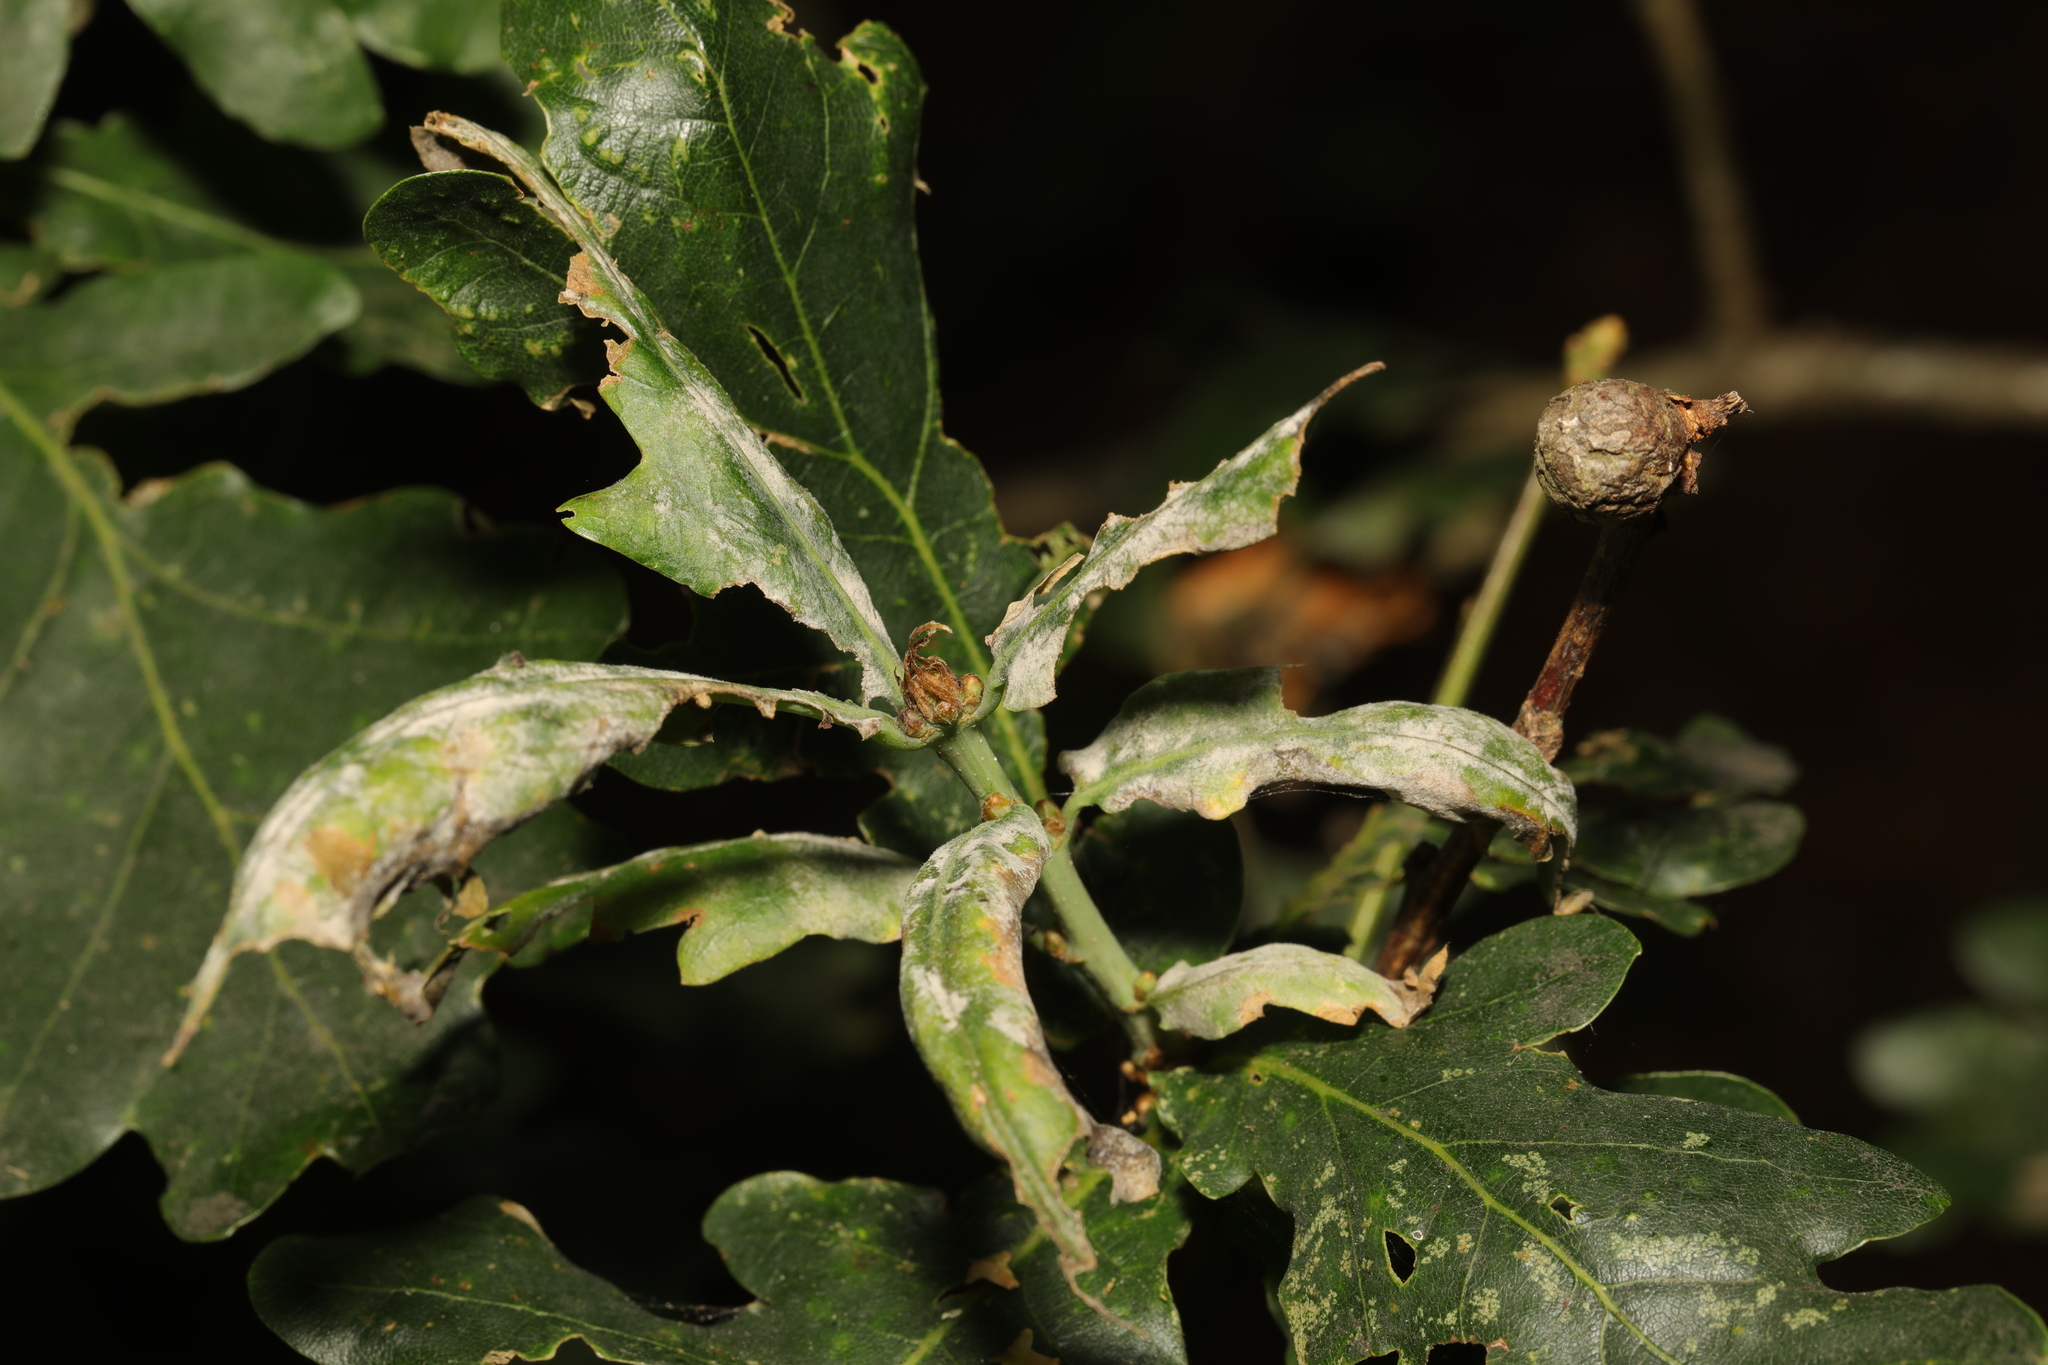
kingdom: Fungi
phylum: Ascomycota
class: Leotiomycetes
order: Helotiales
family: Erysiphaceae
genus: Erysiphe
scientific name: Erysiphe alphitoides
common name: Oak mildew
